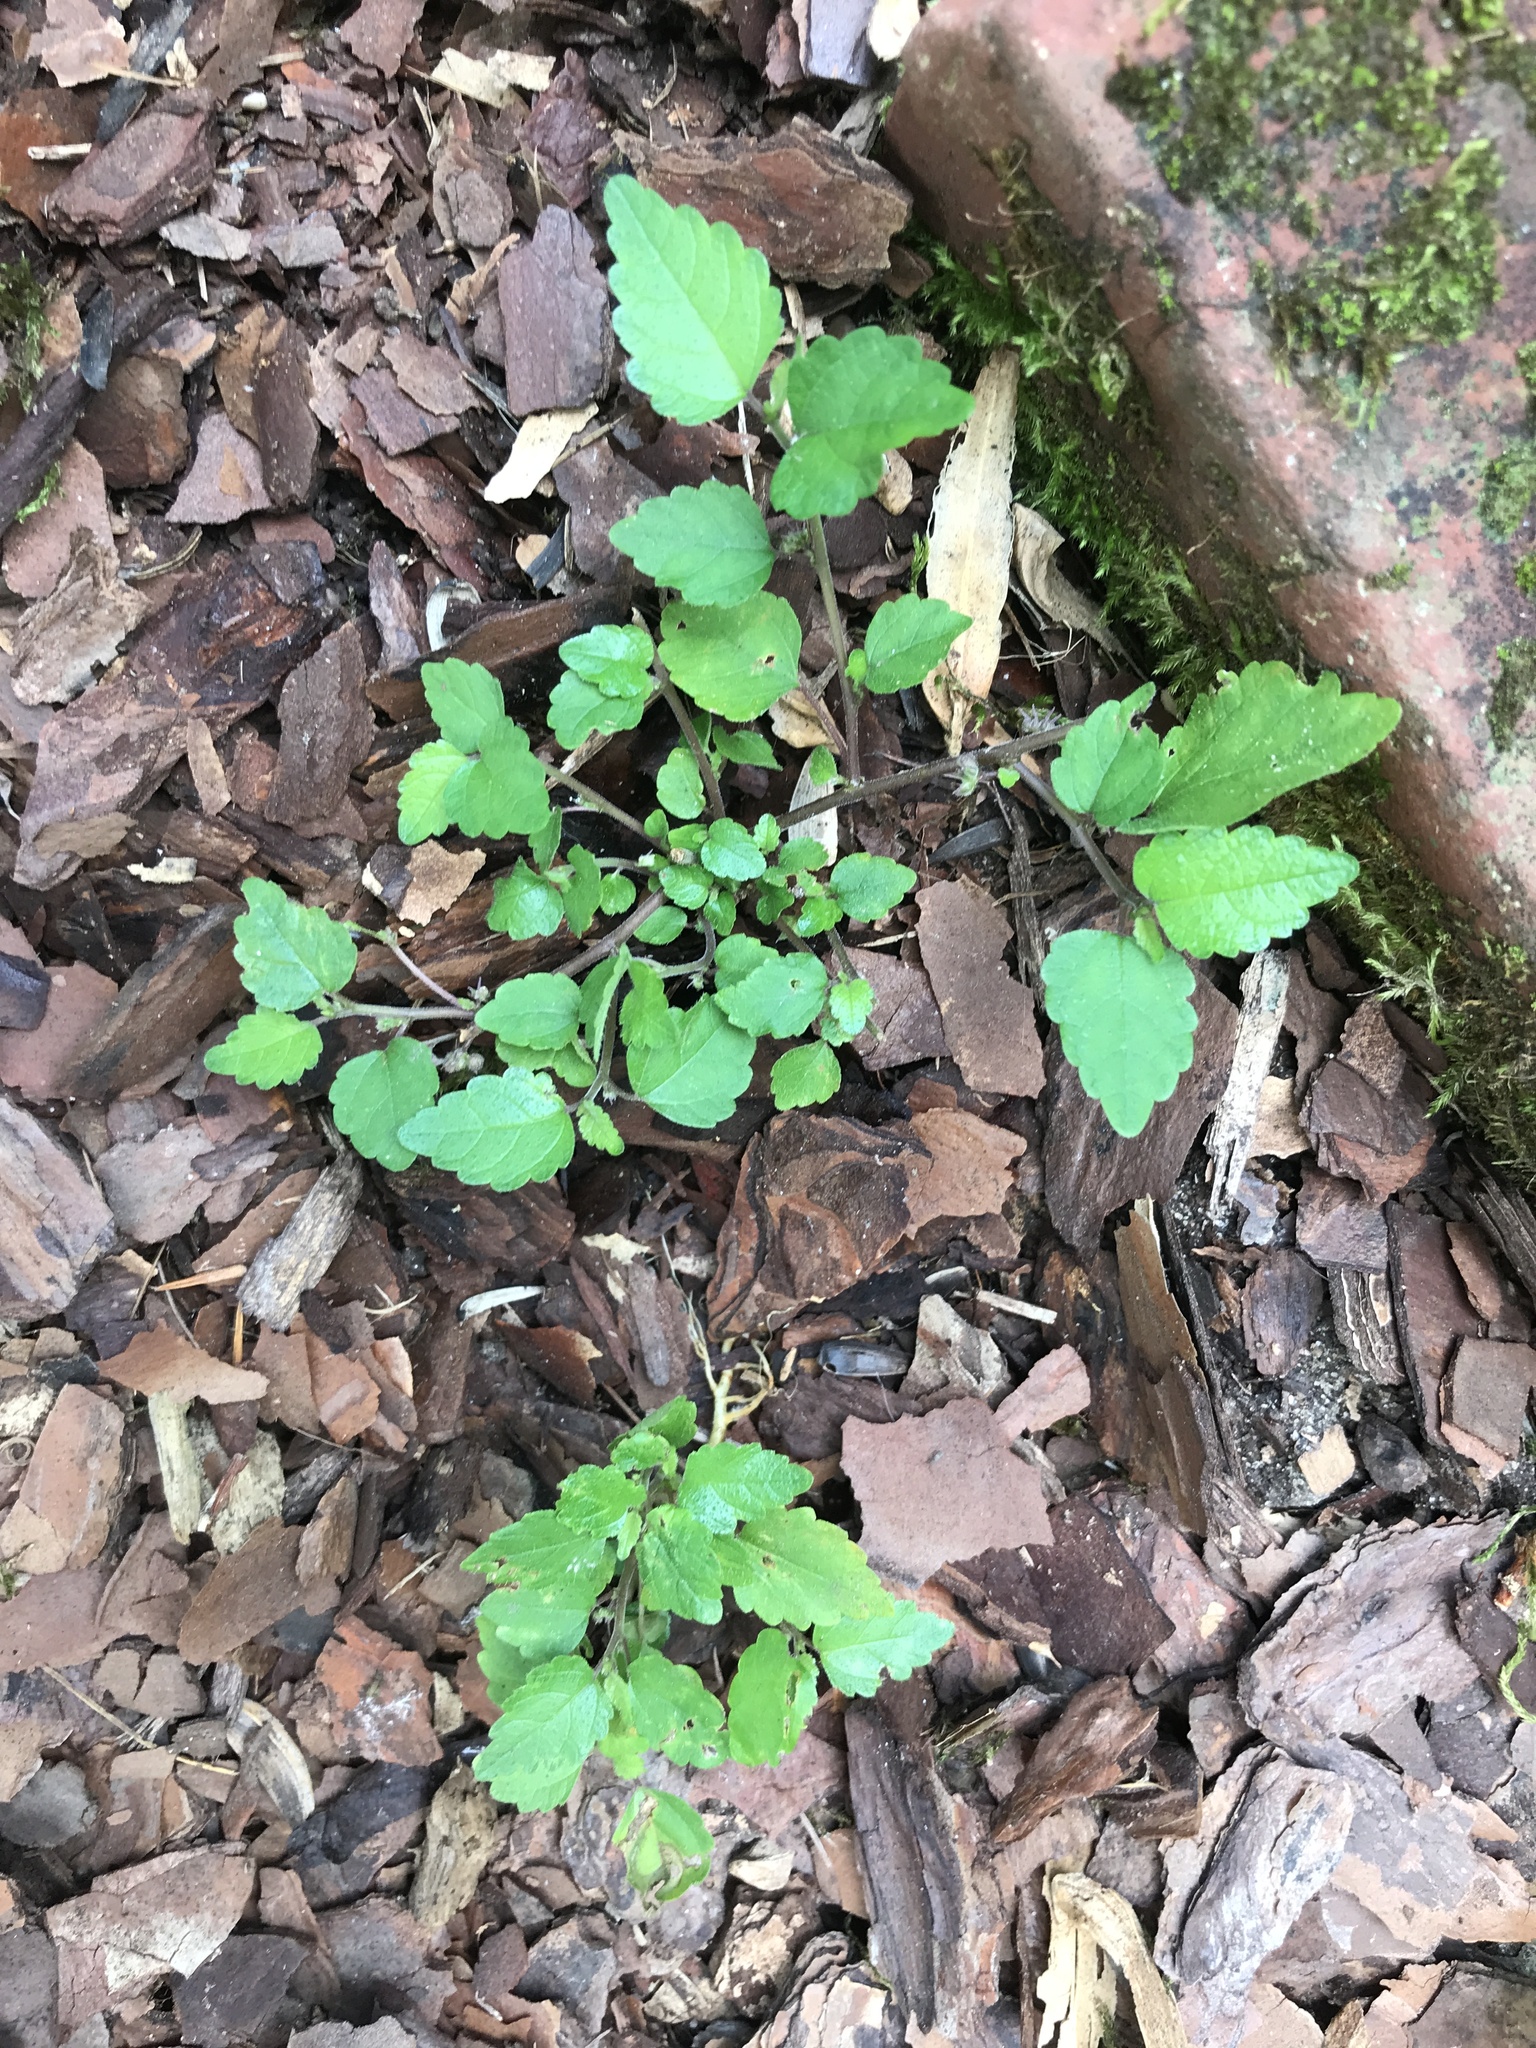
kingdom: Plantae
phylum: Tracheophyta
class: Magnoliopsida
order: Rosales
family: Moraceae
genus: Fatoua
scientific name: Fatoua villosa
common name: Hairy crabweed
